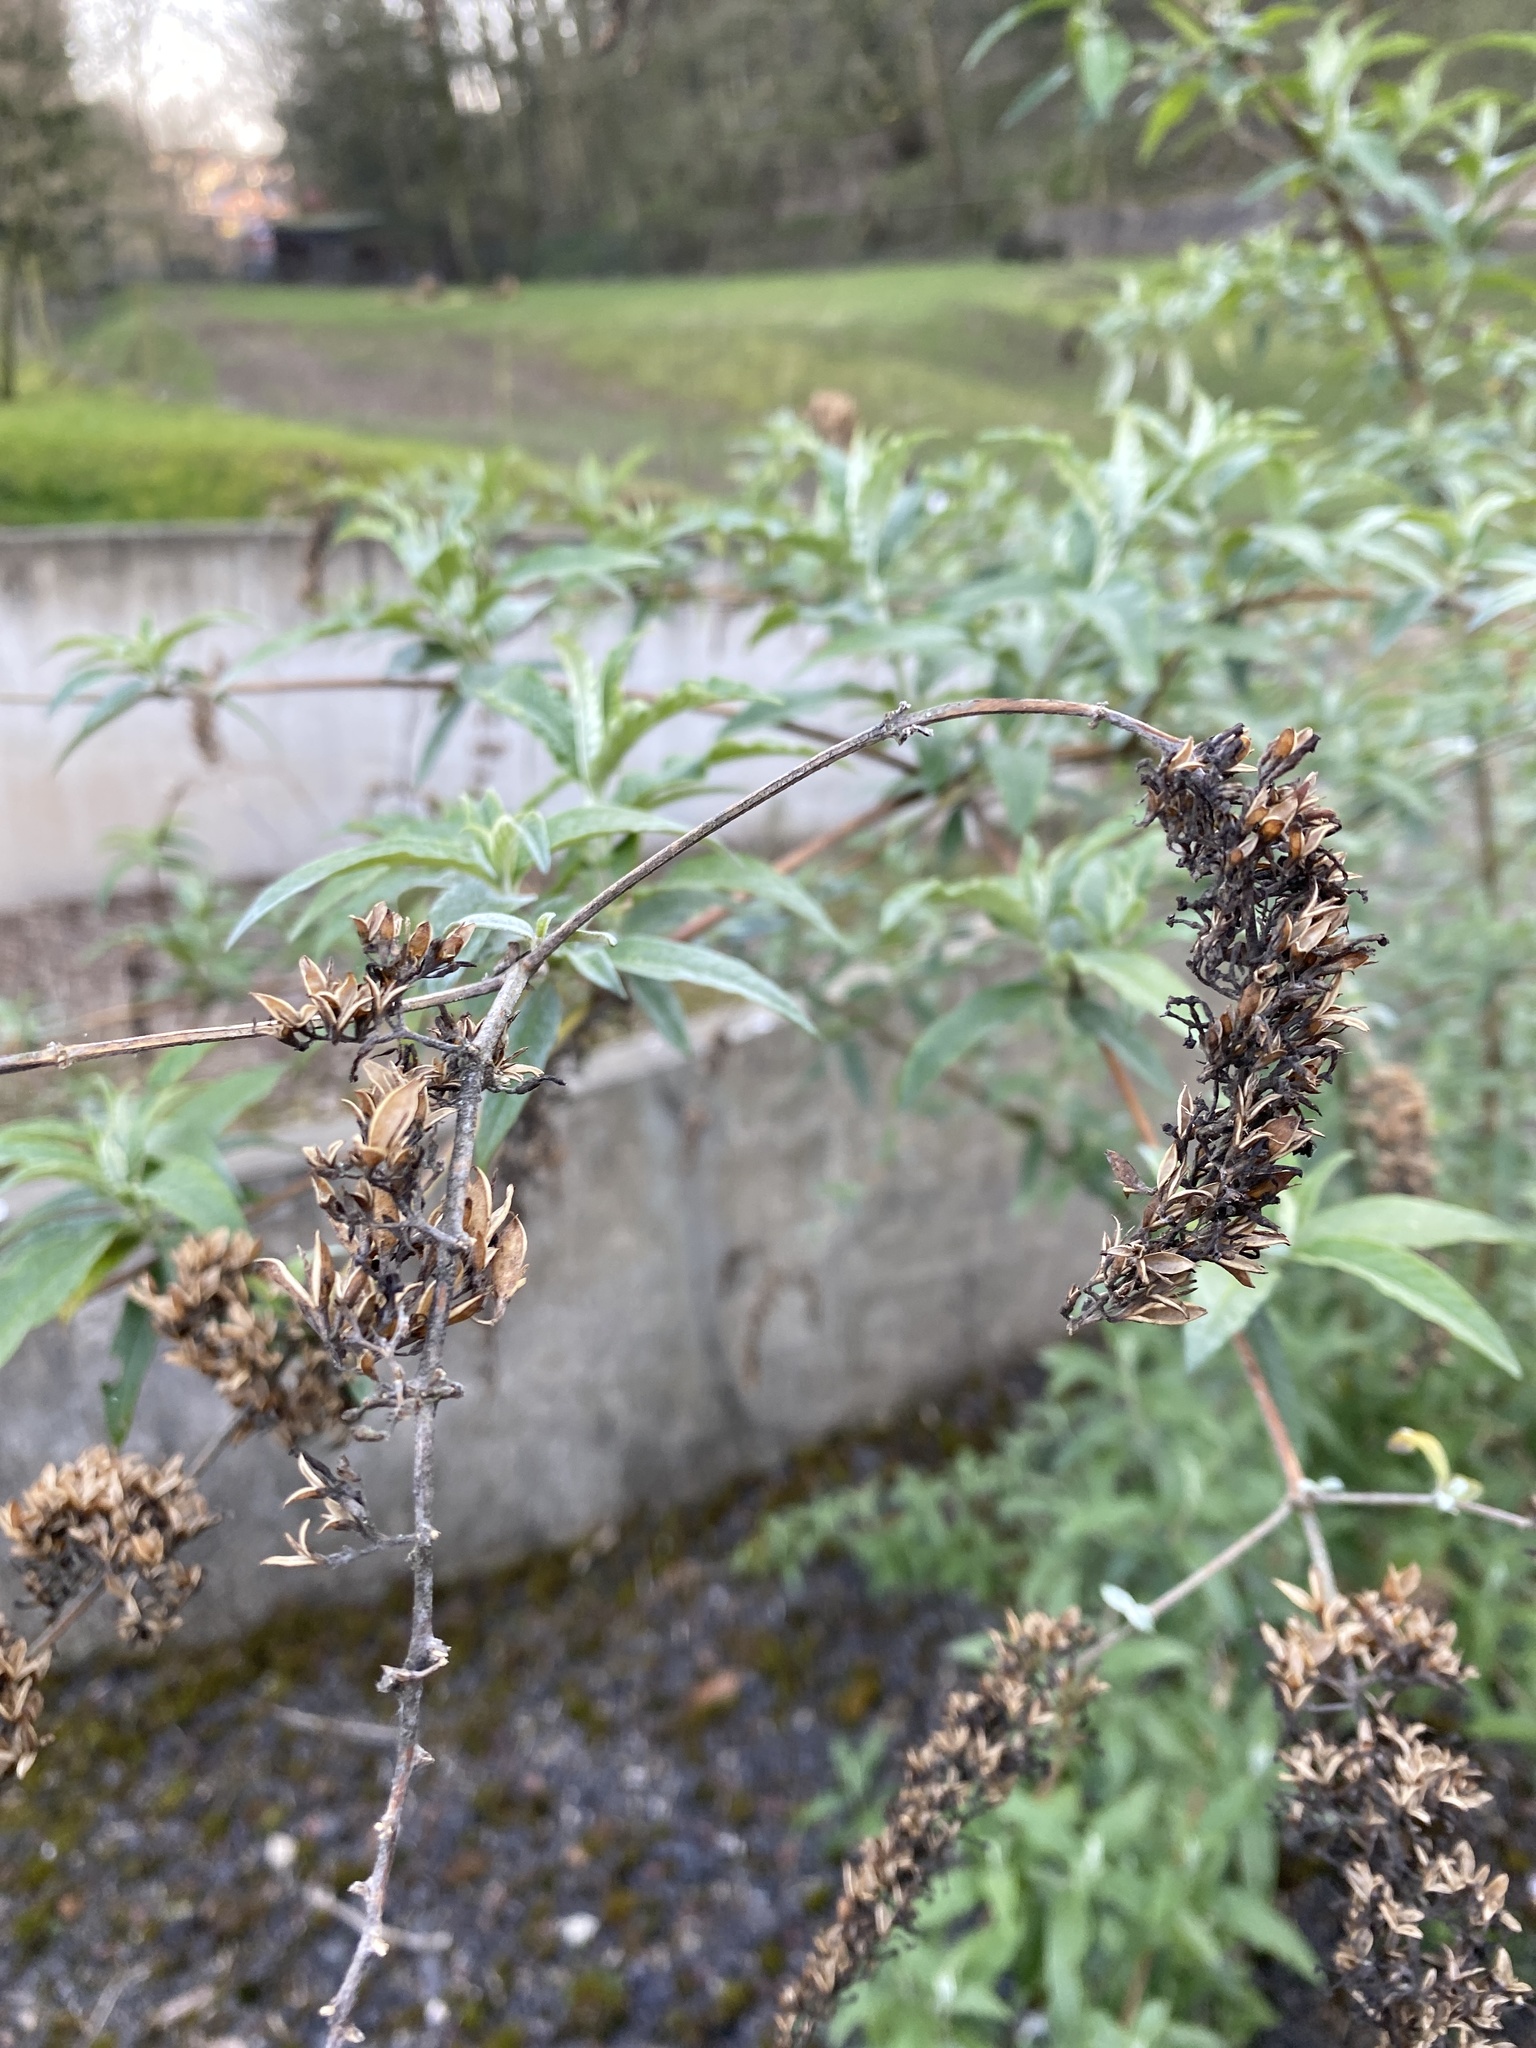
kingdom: Plantae
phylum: Tracheophyta
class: Magnoliopsida
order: Lamiales
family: Scrophulariaceae
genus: Buddleja
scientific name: Buddleja davidii
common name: Butterfly-bush
